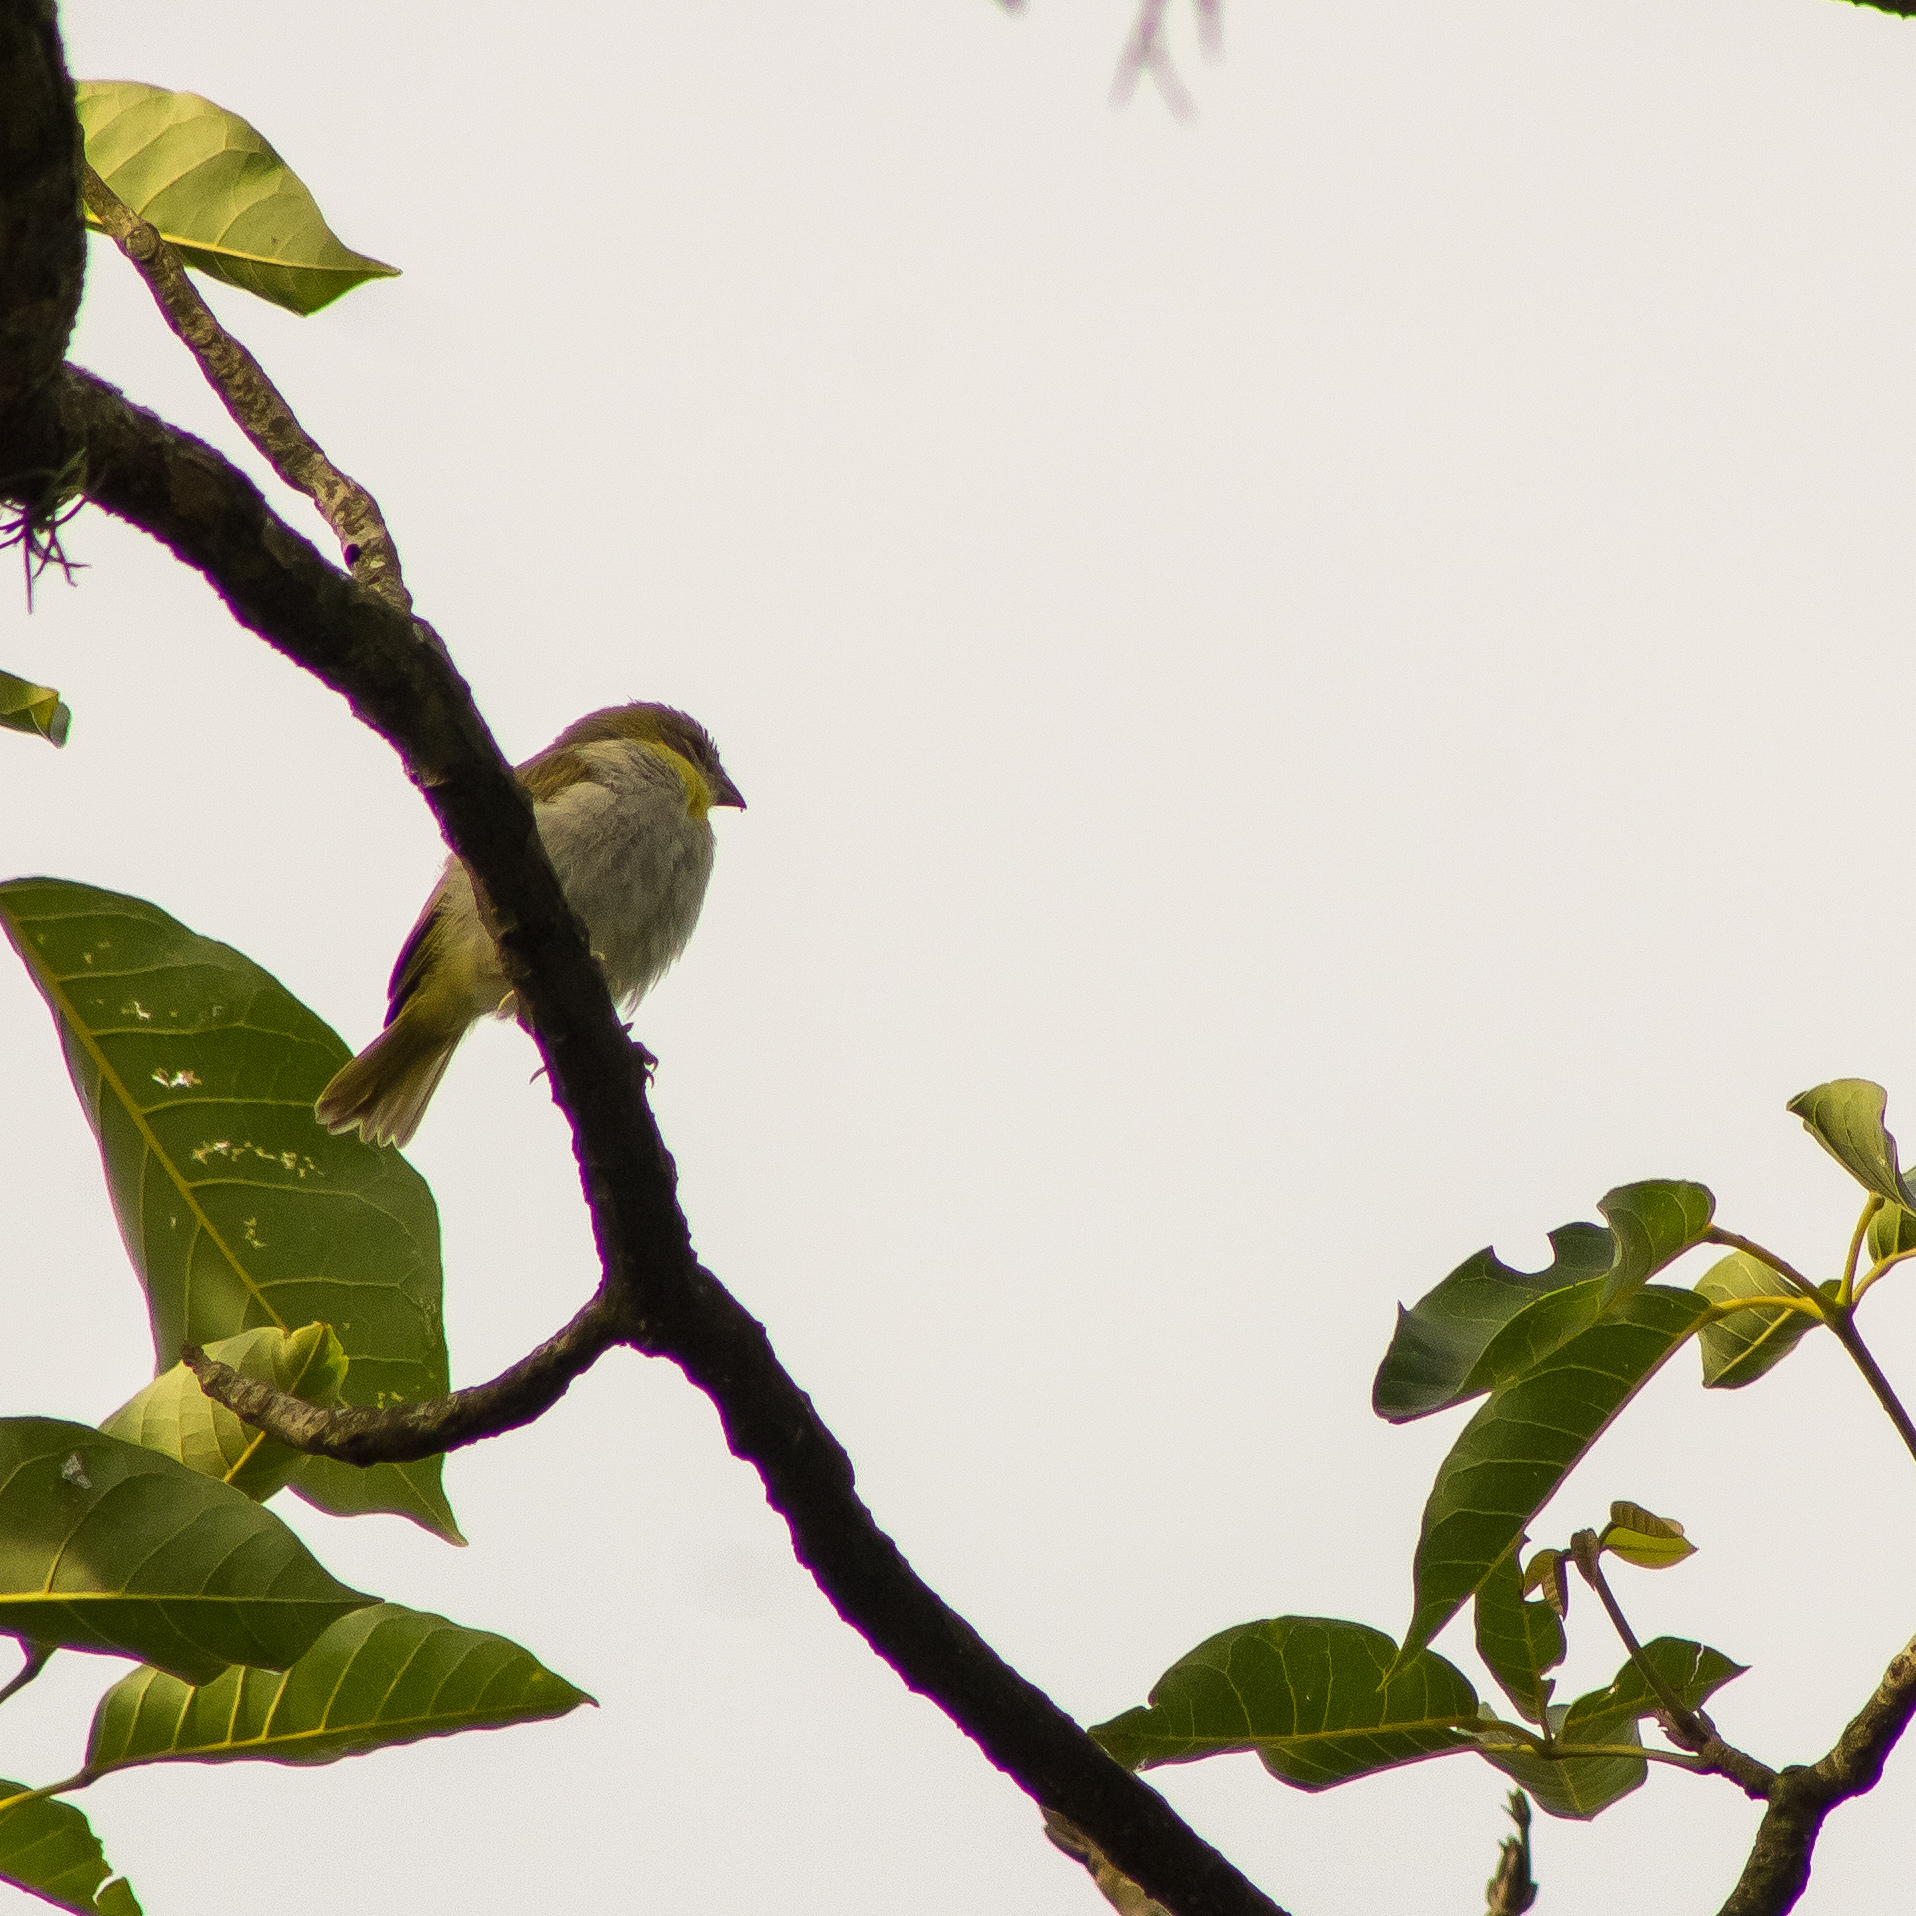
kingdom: Animalia
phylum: Chordata
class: Aves
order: Passeriformes
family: Thraupidae
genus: Sicalis
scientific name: Sicalis flaveola
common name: Saffron finch
